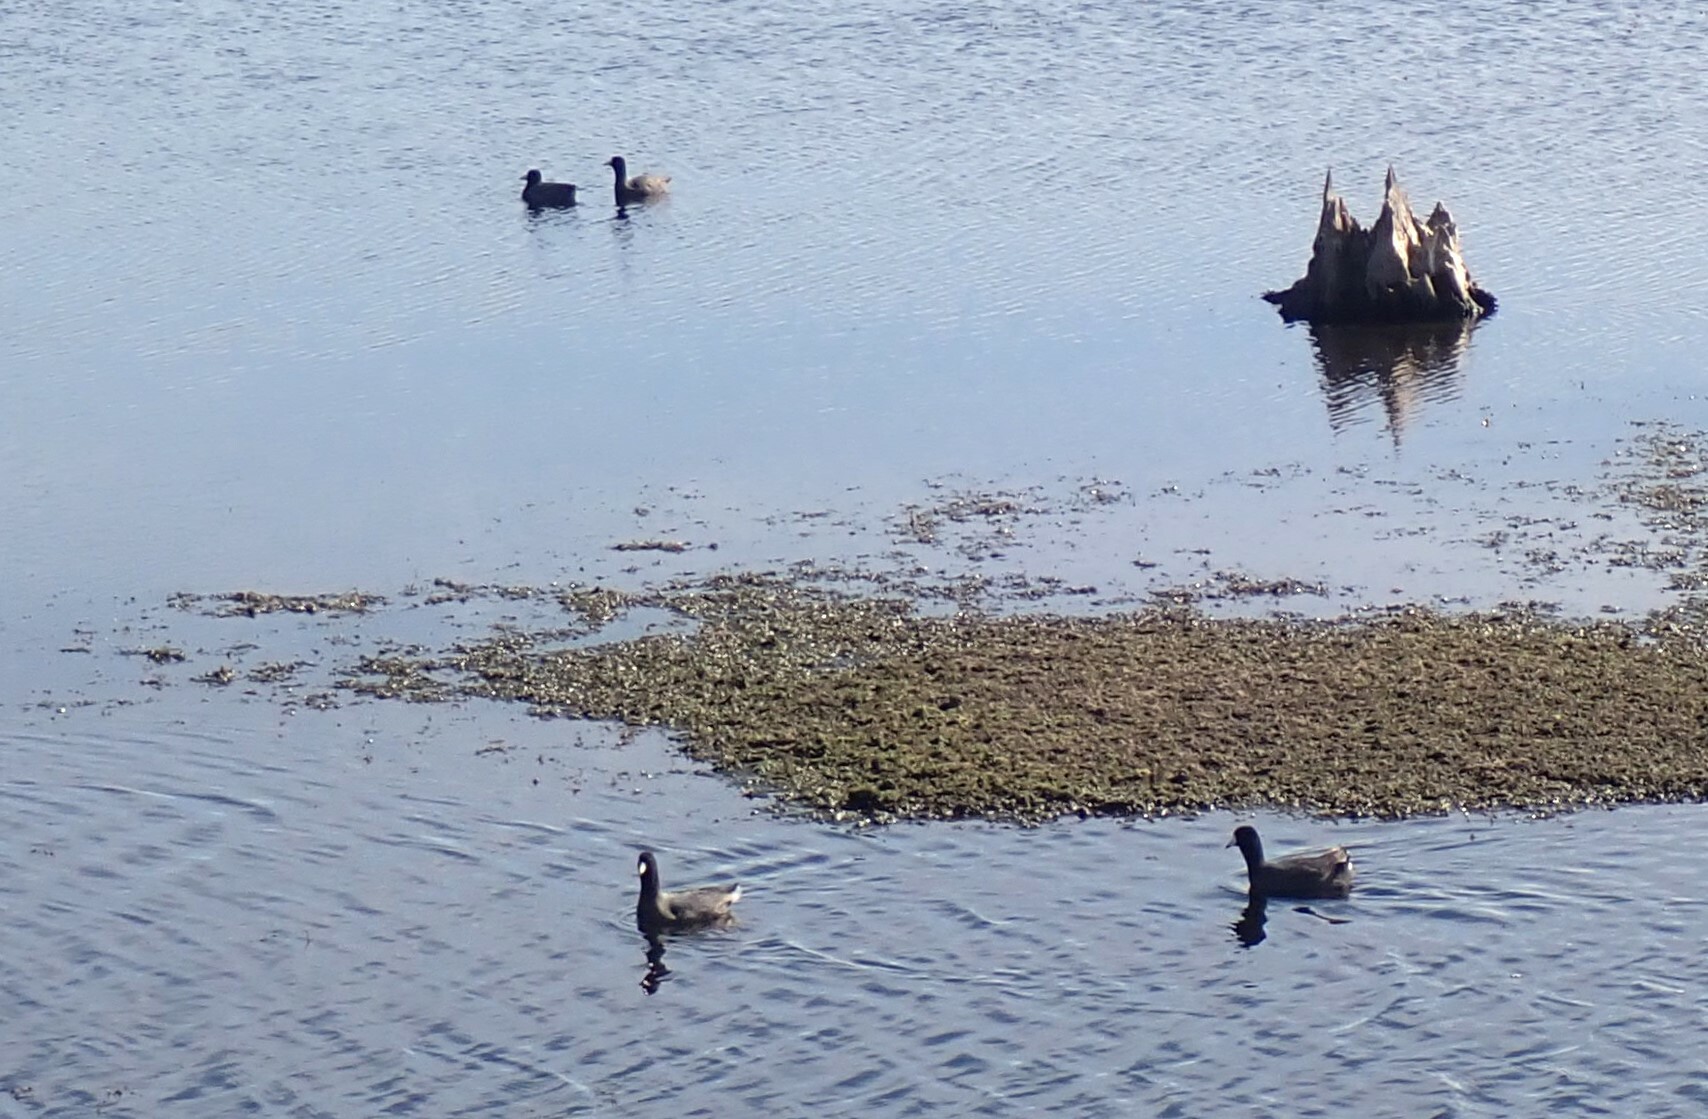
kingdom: Animalia
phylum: Chordata
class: Aves
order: Gruiformes
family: Rallidae
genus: Fulica
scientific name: Fulica americana
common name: American coot
